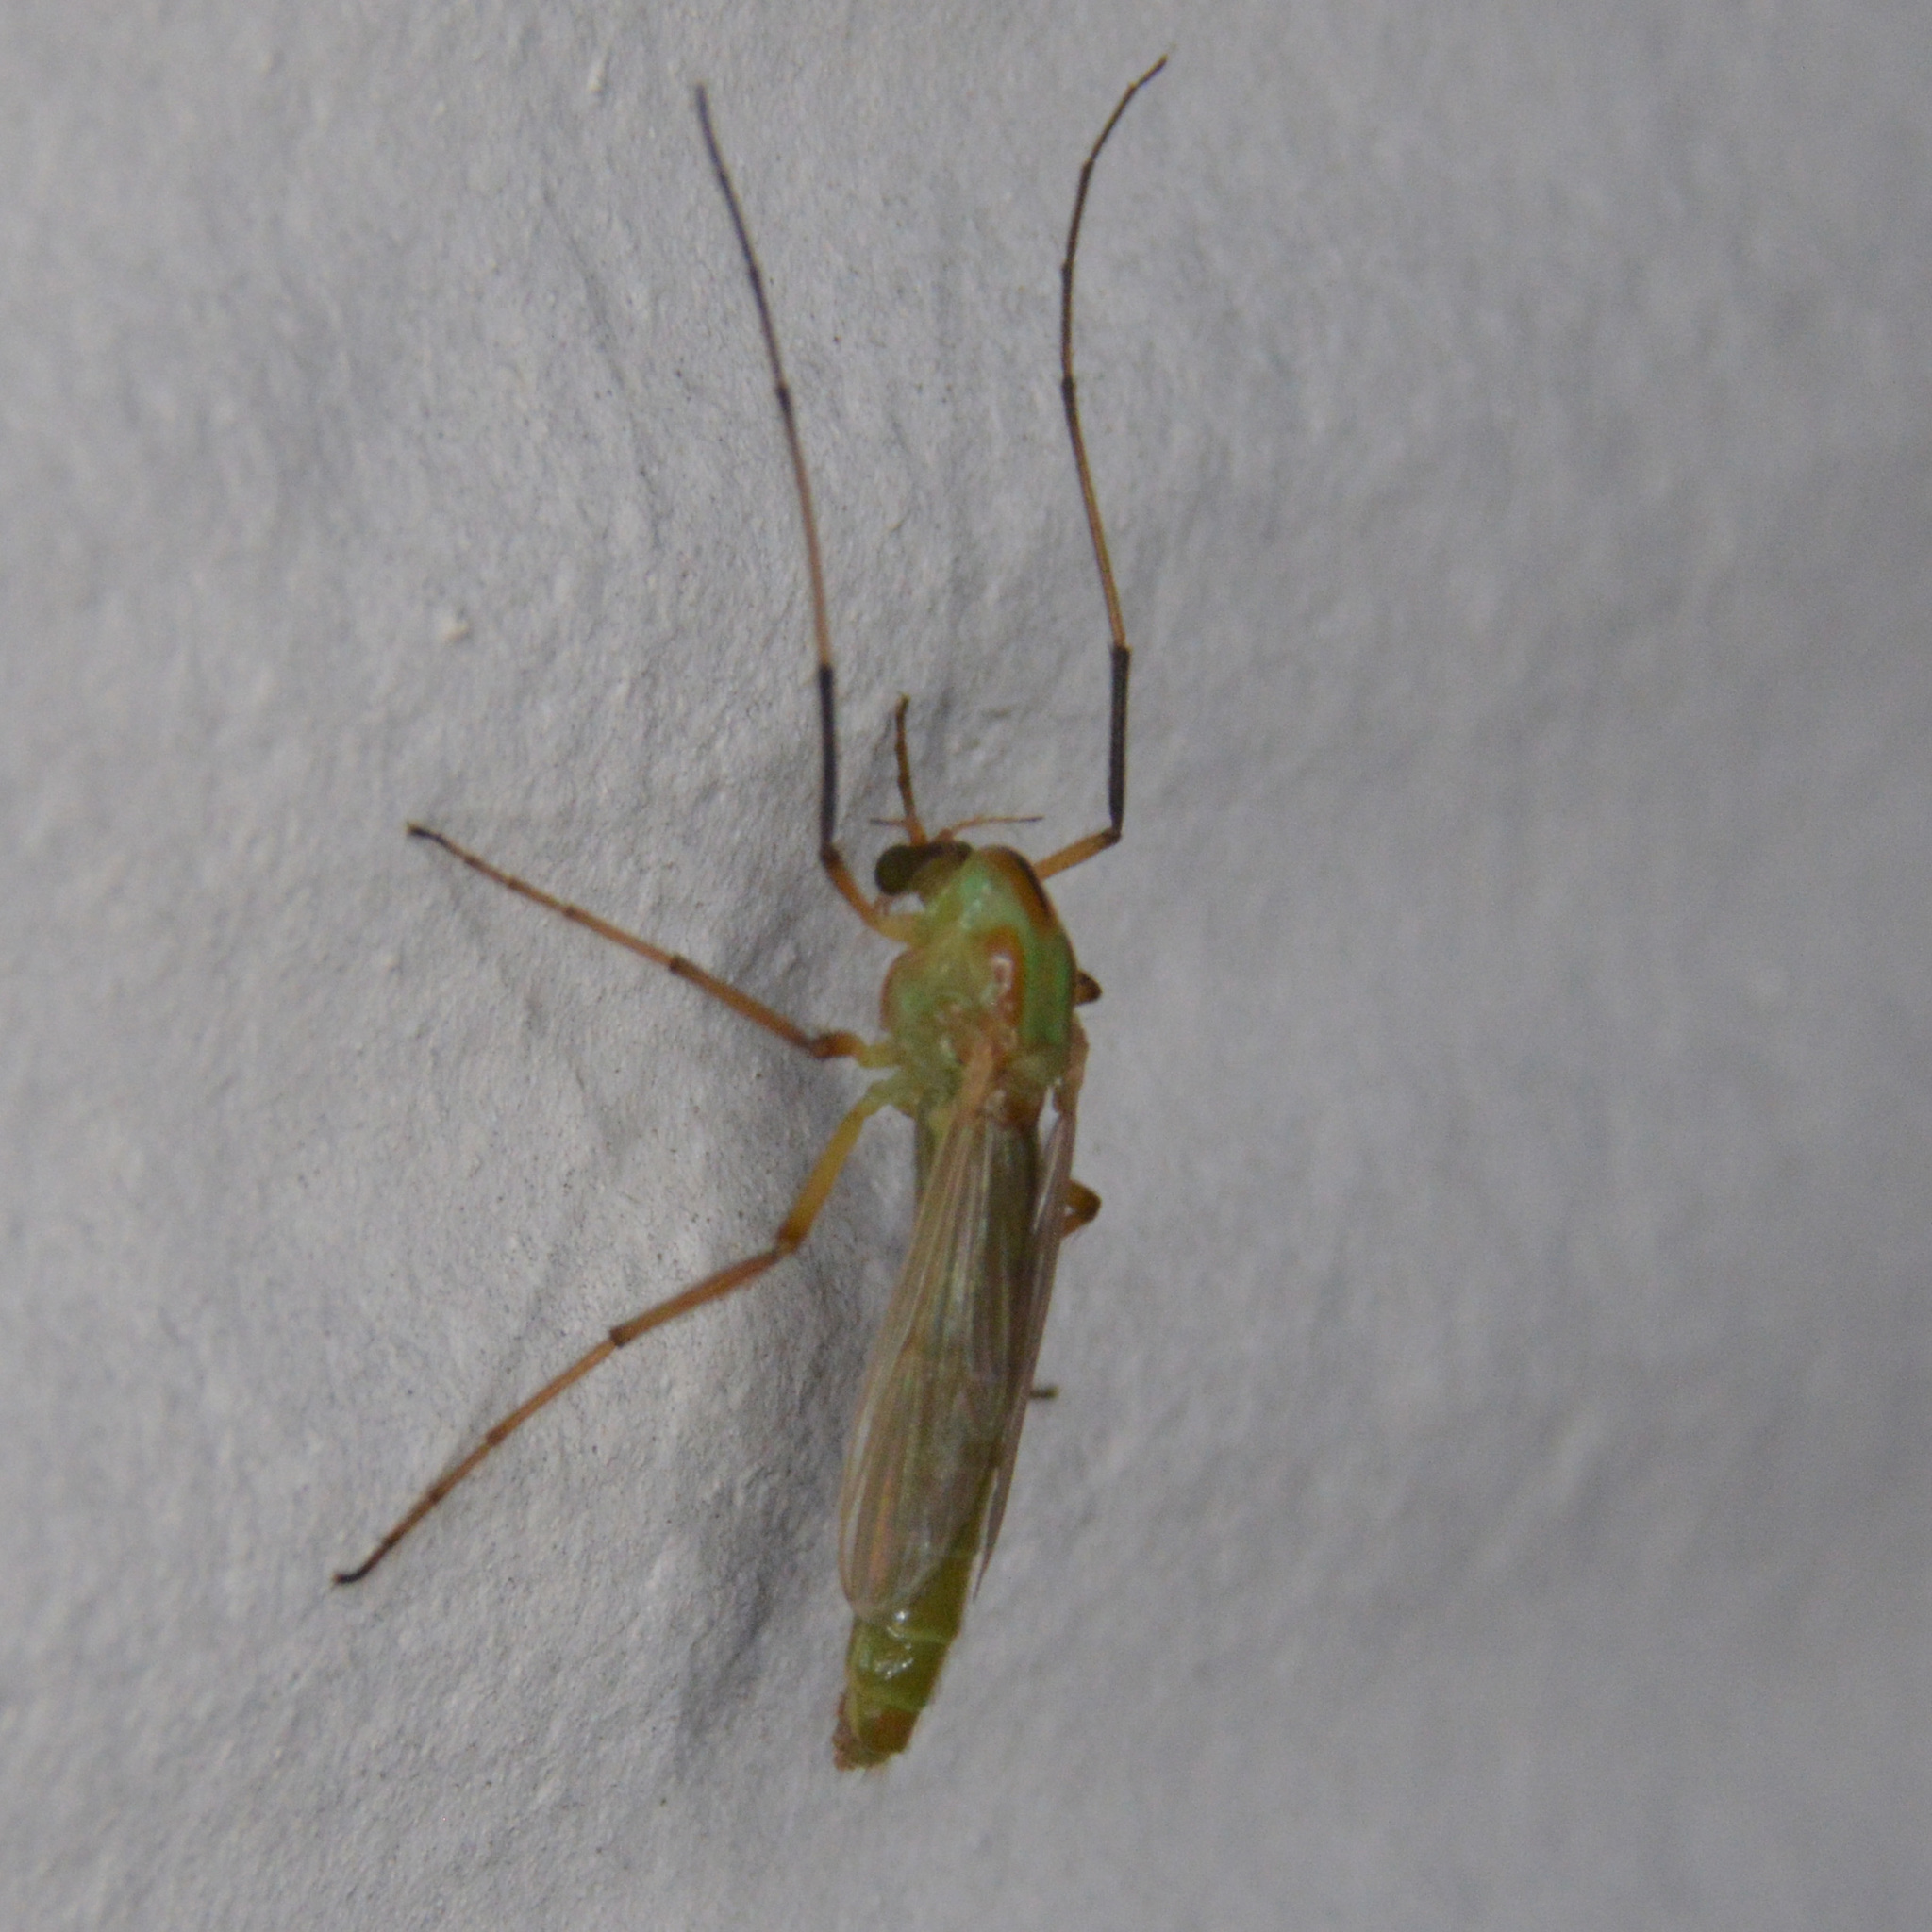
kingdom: Animalia
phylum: Arthropoda
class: Insecta
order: Diptera
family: Chironomidae
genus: Axarus
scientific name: Axarus
